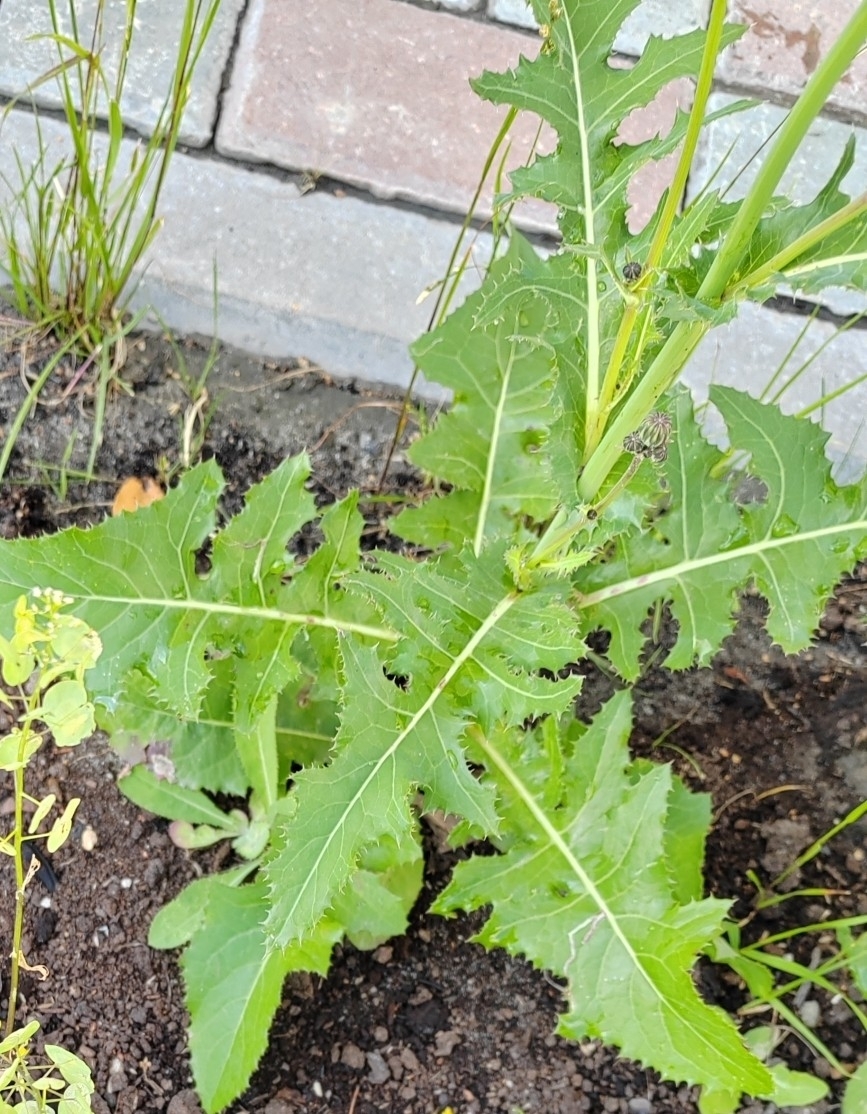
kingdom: Plantae
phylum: Tracheophyta
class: Magnoliopsida
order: Asterales
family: Asteraceae
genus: Sonchus
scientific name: Sonchus arvensis
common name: Perennial sow-thistle
